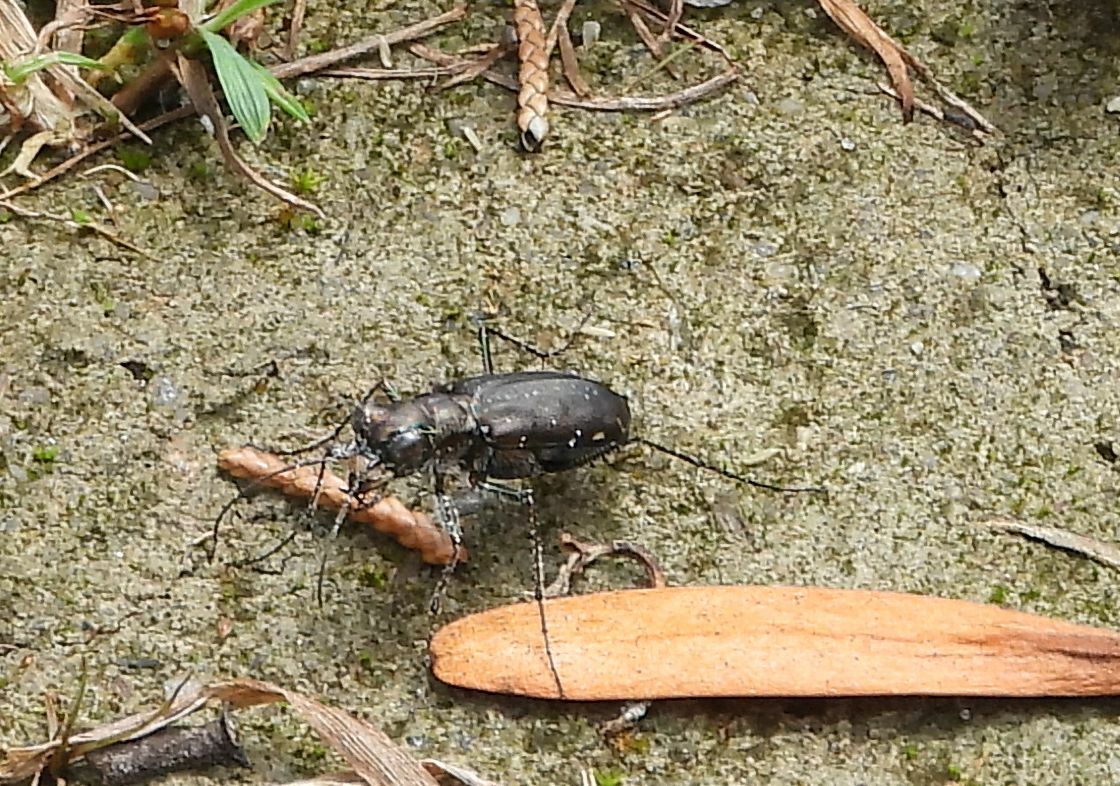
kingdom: Animalia
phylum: Arthropoda
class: Insecta
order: Coleoptera
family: Carabidae
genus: Cicindela
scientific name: Cicindela punctulata
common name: Punctured tiger beetle
